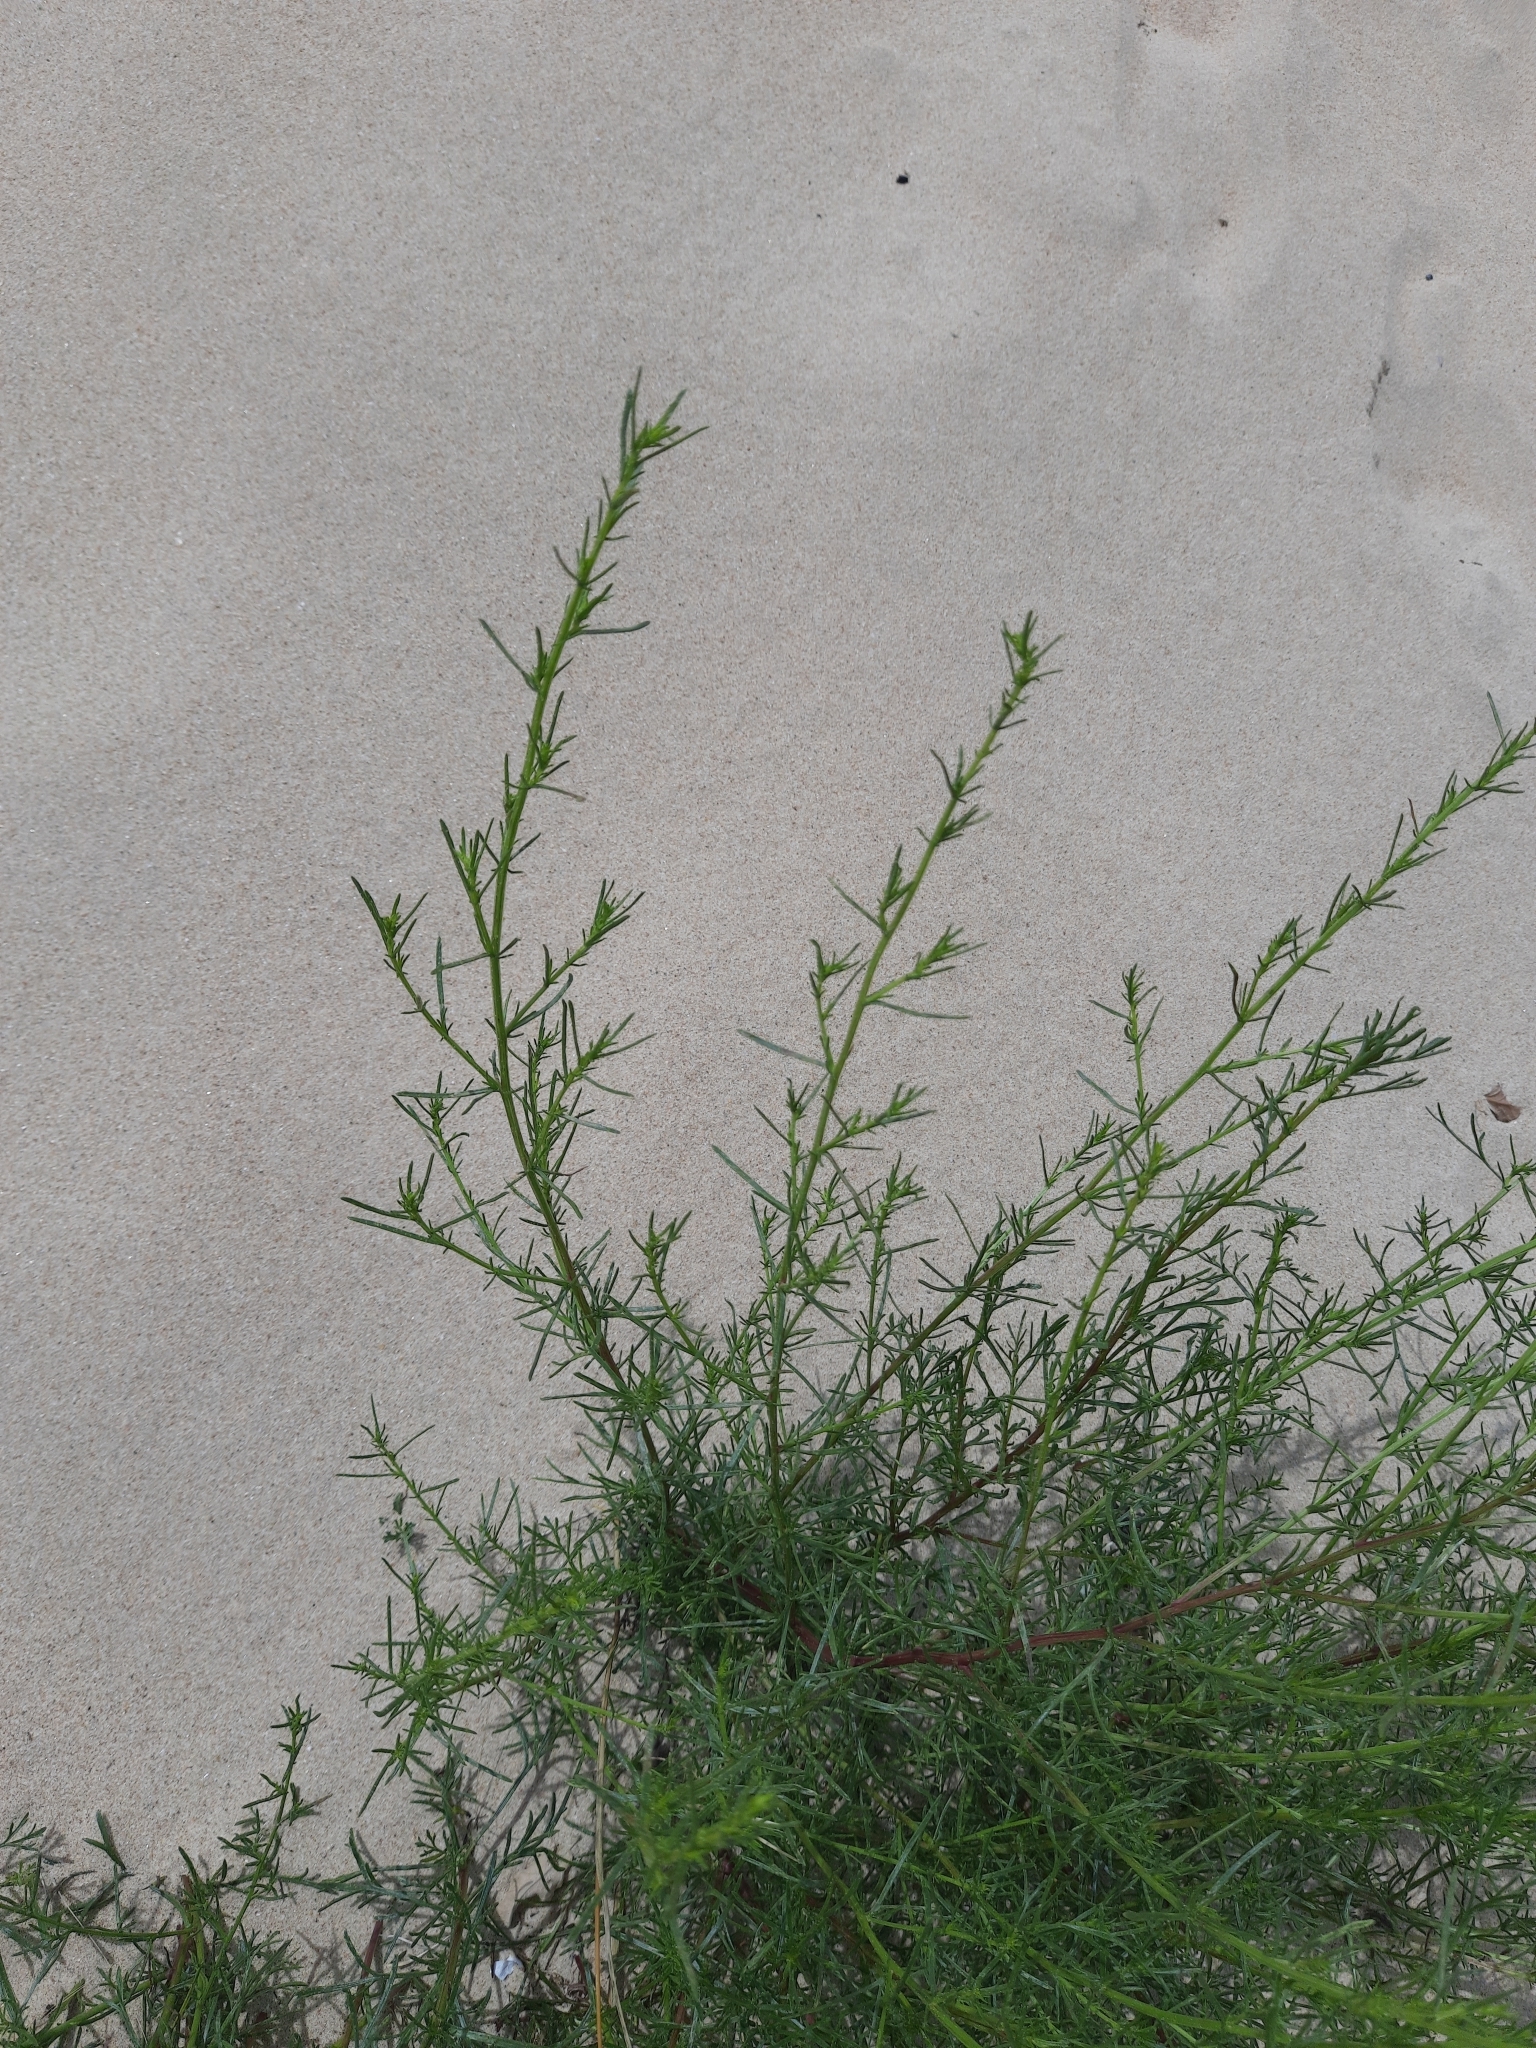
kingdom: Plantae
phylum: Tracheophyta
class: Magnoliopsida
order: Asterales
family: Asteraceae
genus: Artemisia
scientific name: Artemisia arenaria
